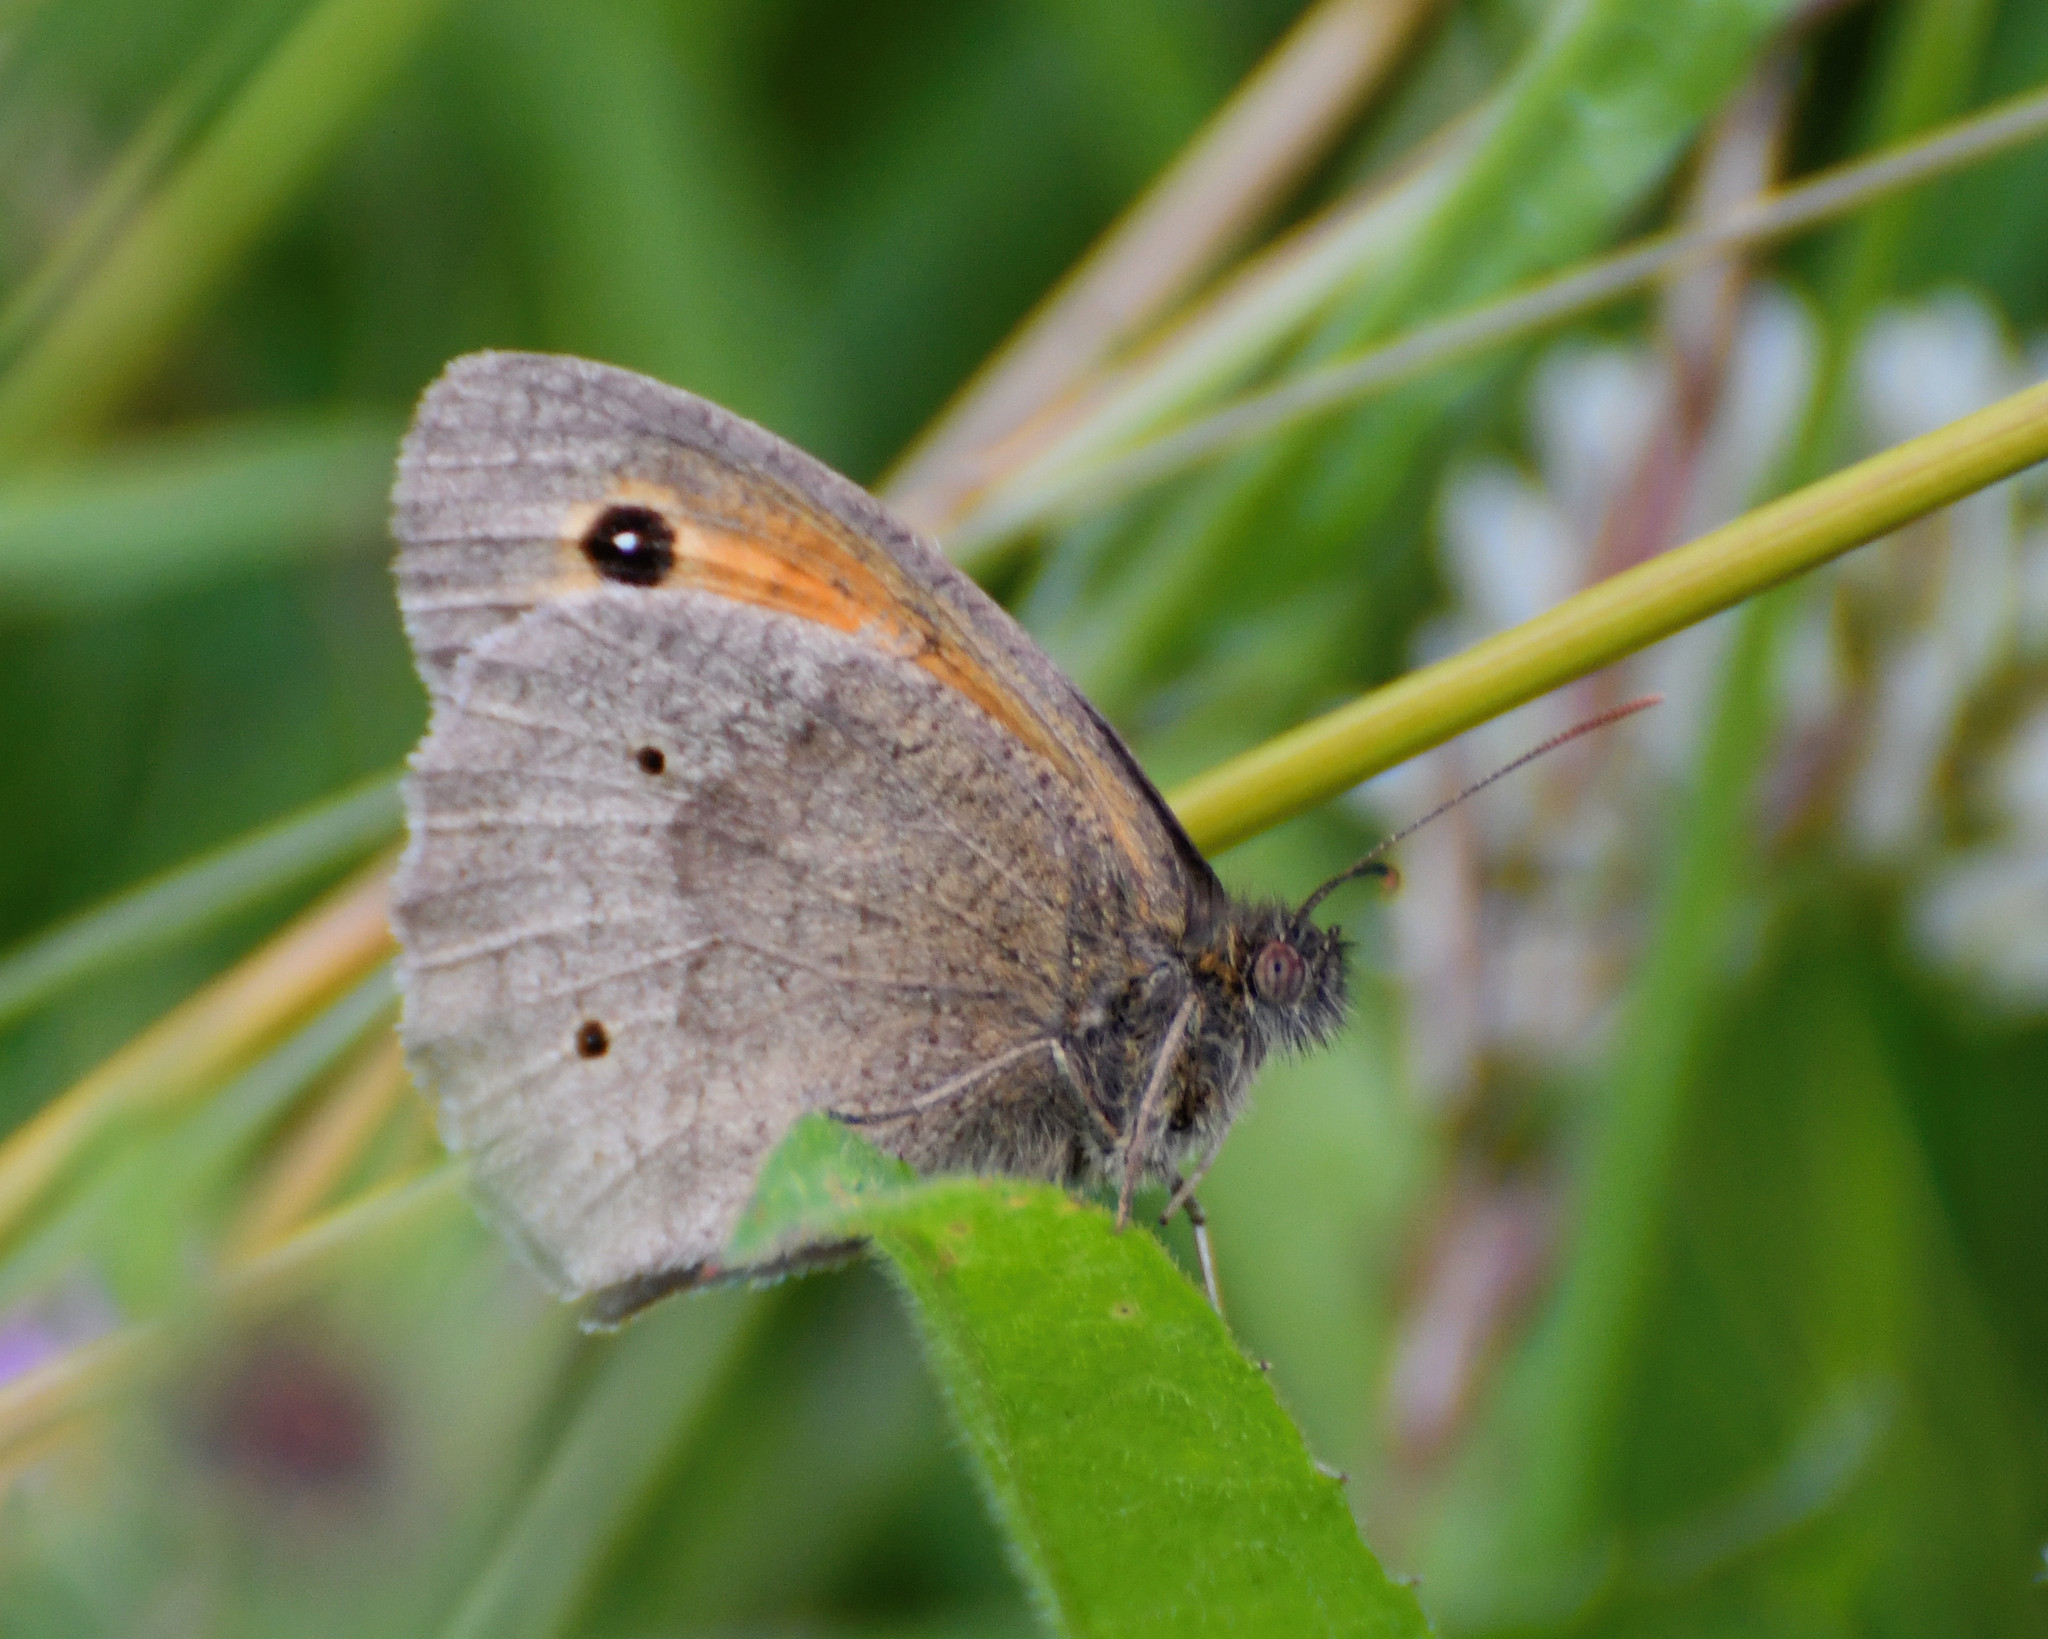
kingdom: Animalia
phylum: Arthropoda
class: Insecta
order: Lepidoptera
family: Nymphalidae
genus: Maniola
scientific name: Maniola jurtina
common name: Meadow brown
